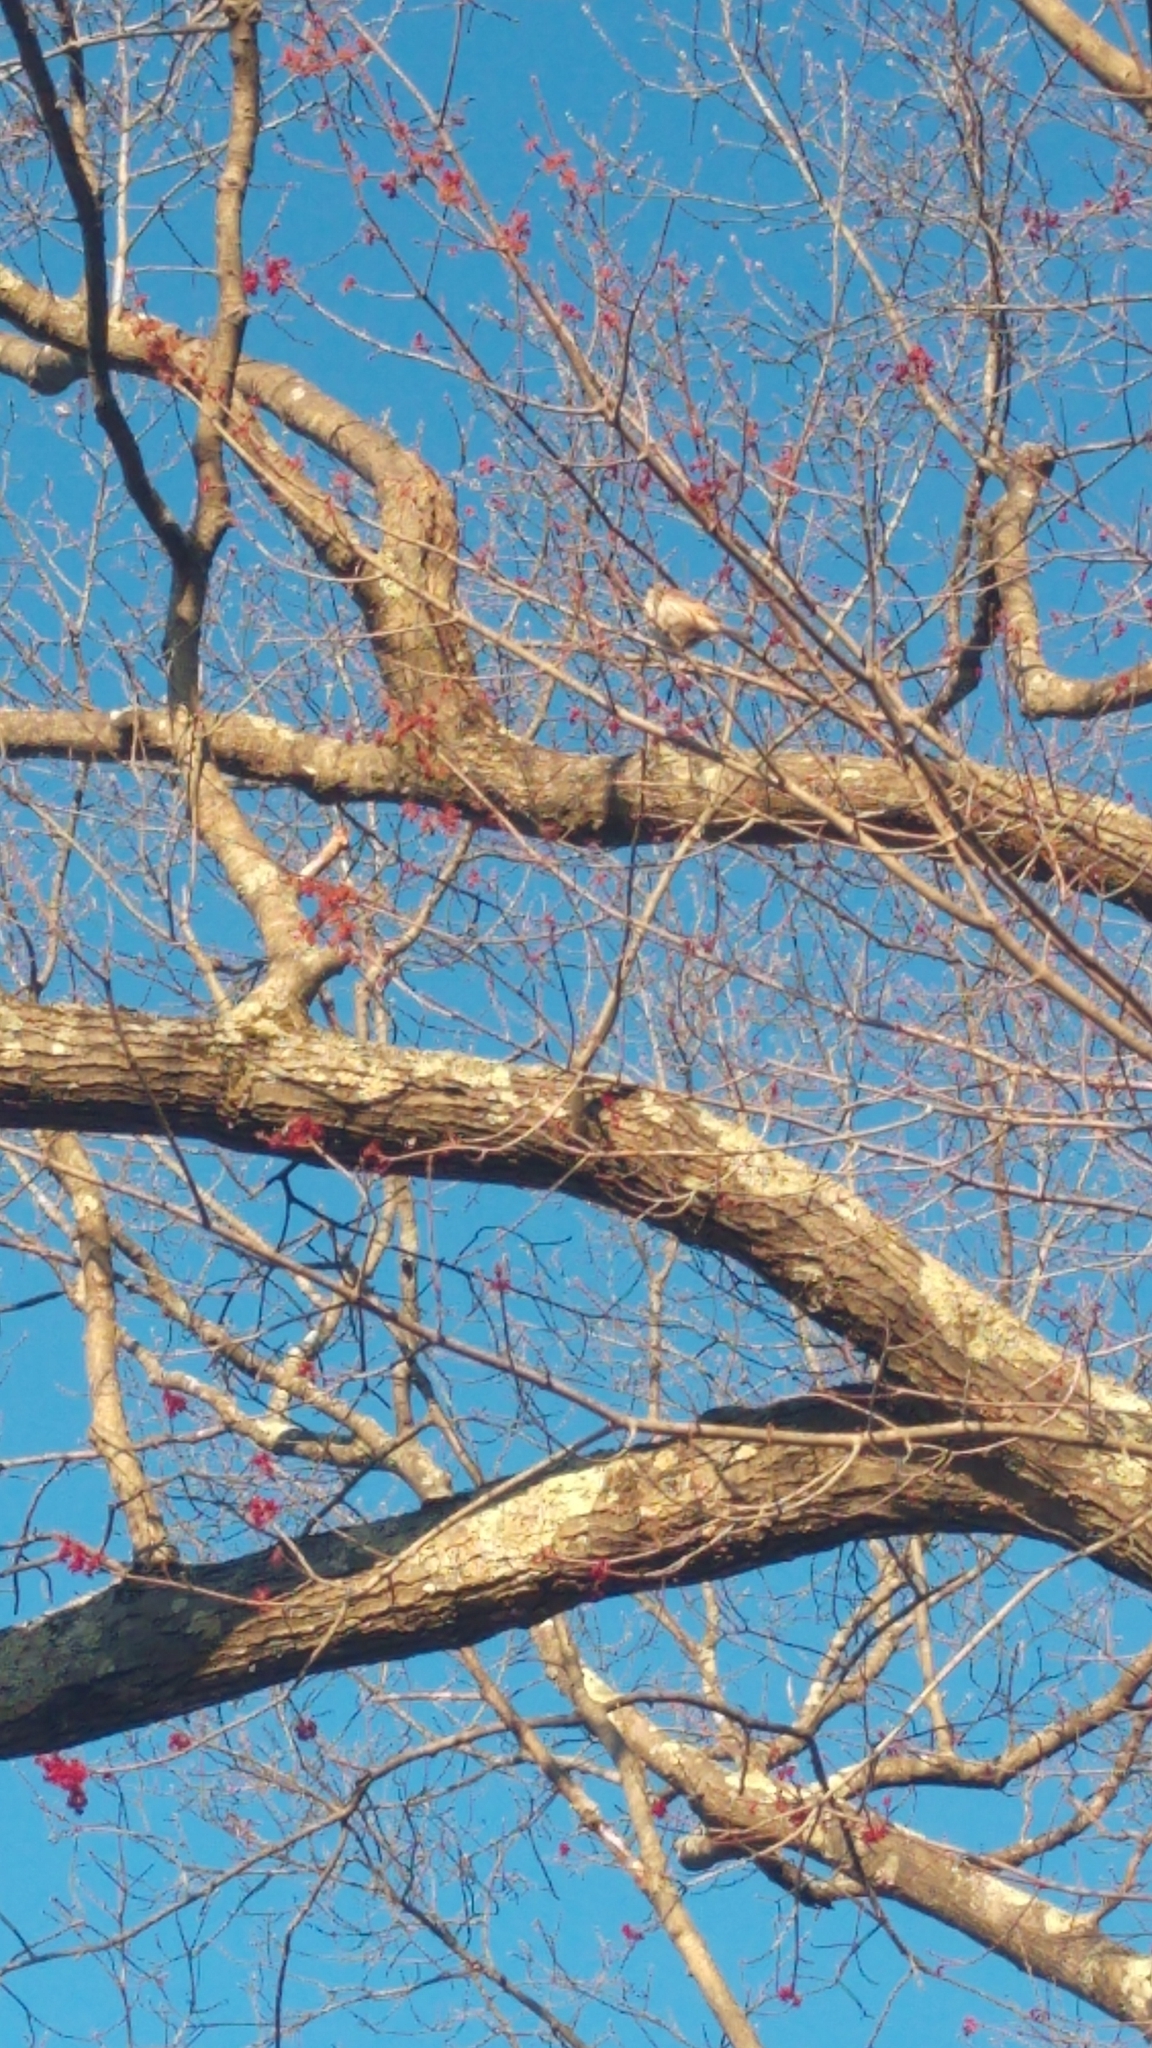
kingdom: Animalia
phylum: Chordata
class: Aves
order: Passeriformes
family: Passerellidae
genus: Melospiza
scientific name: Melospiza melodia
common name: Song sparrow
